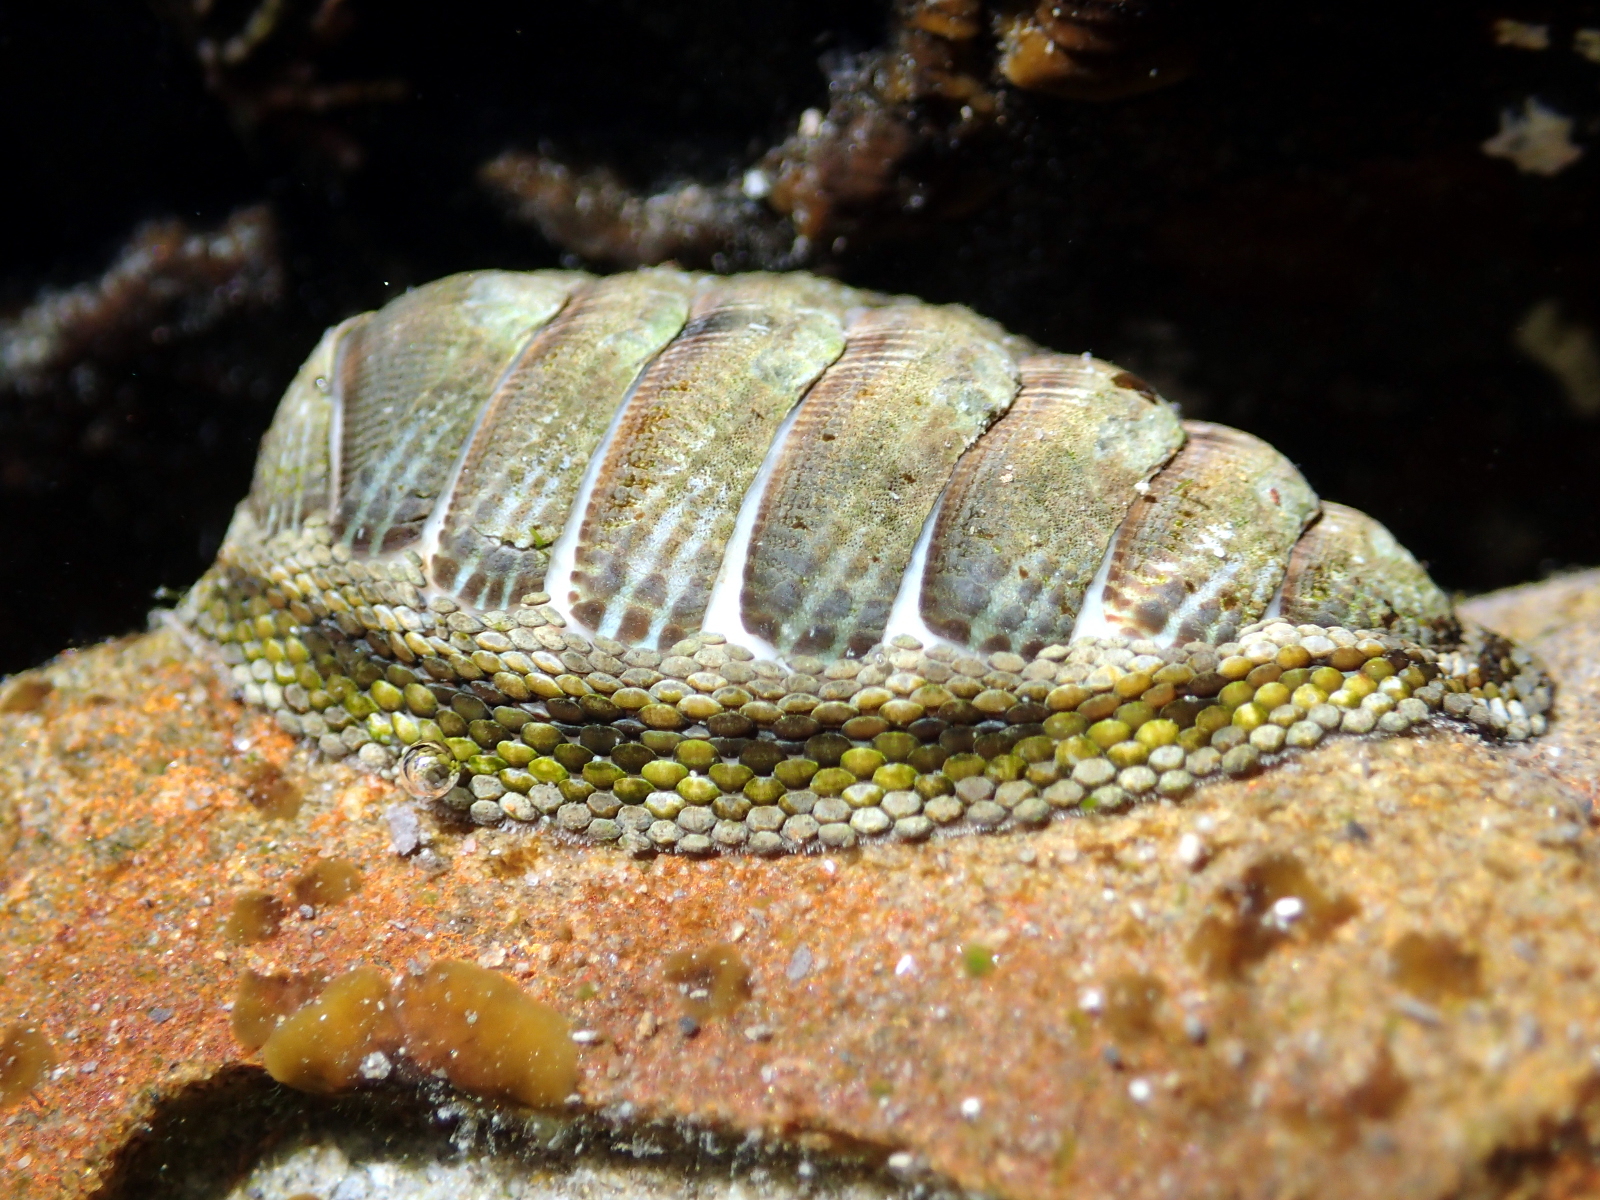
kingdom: Animalia
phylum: Mollusca
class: Polyplacophora
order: Chitonida
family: Chitonidae
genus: Sypharochiton
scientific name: Sypharochiton pelliserpentis
